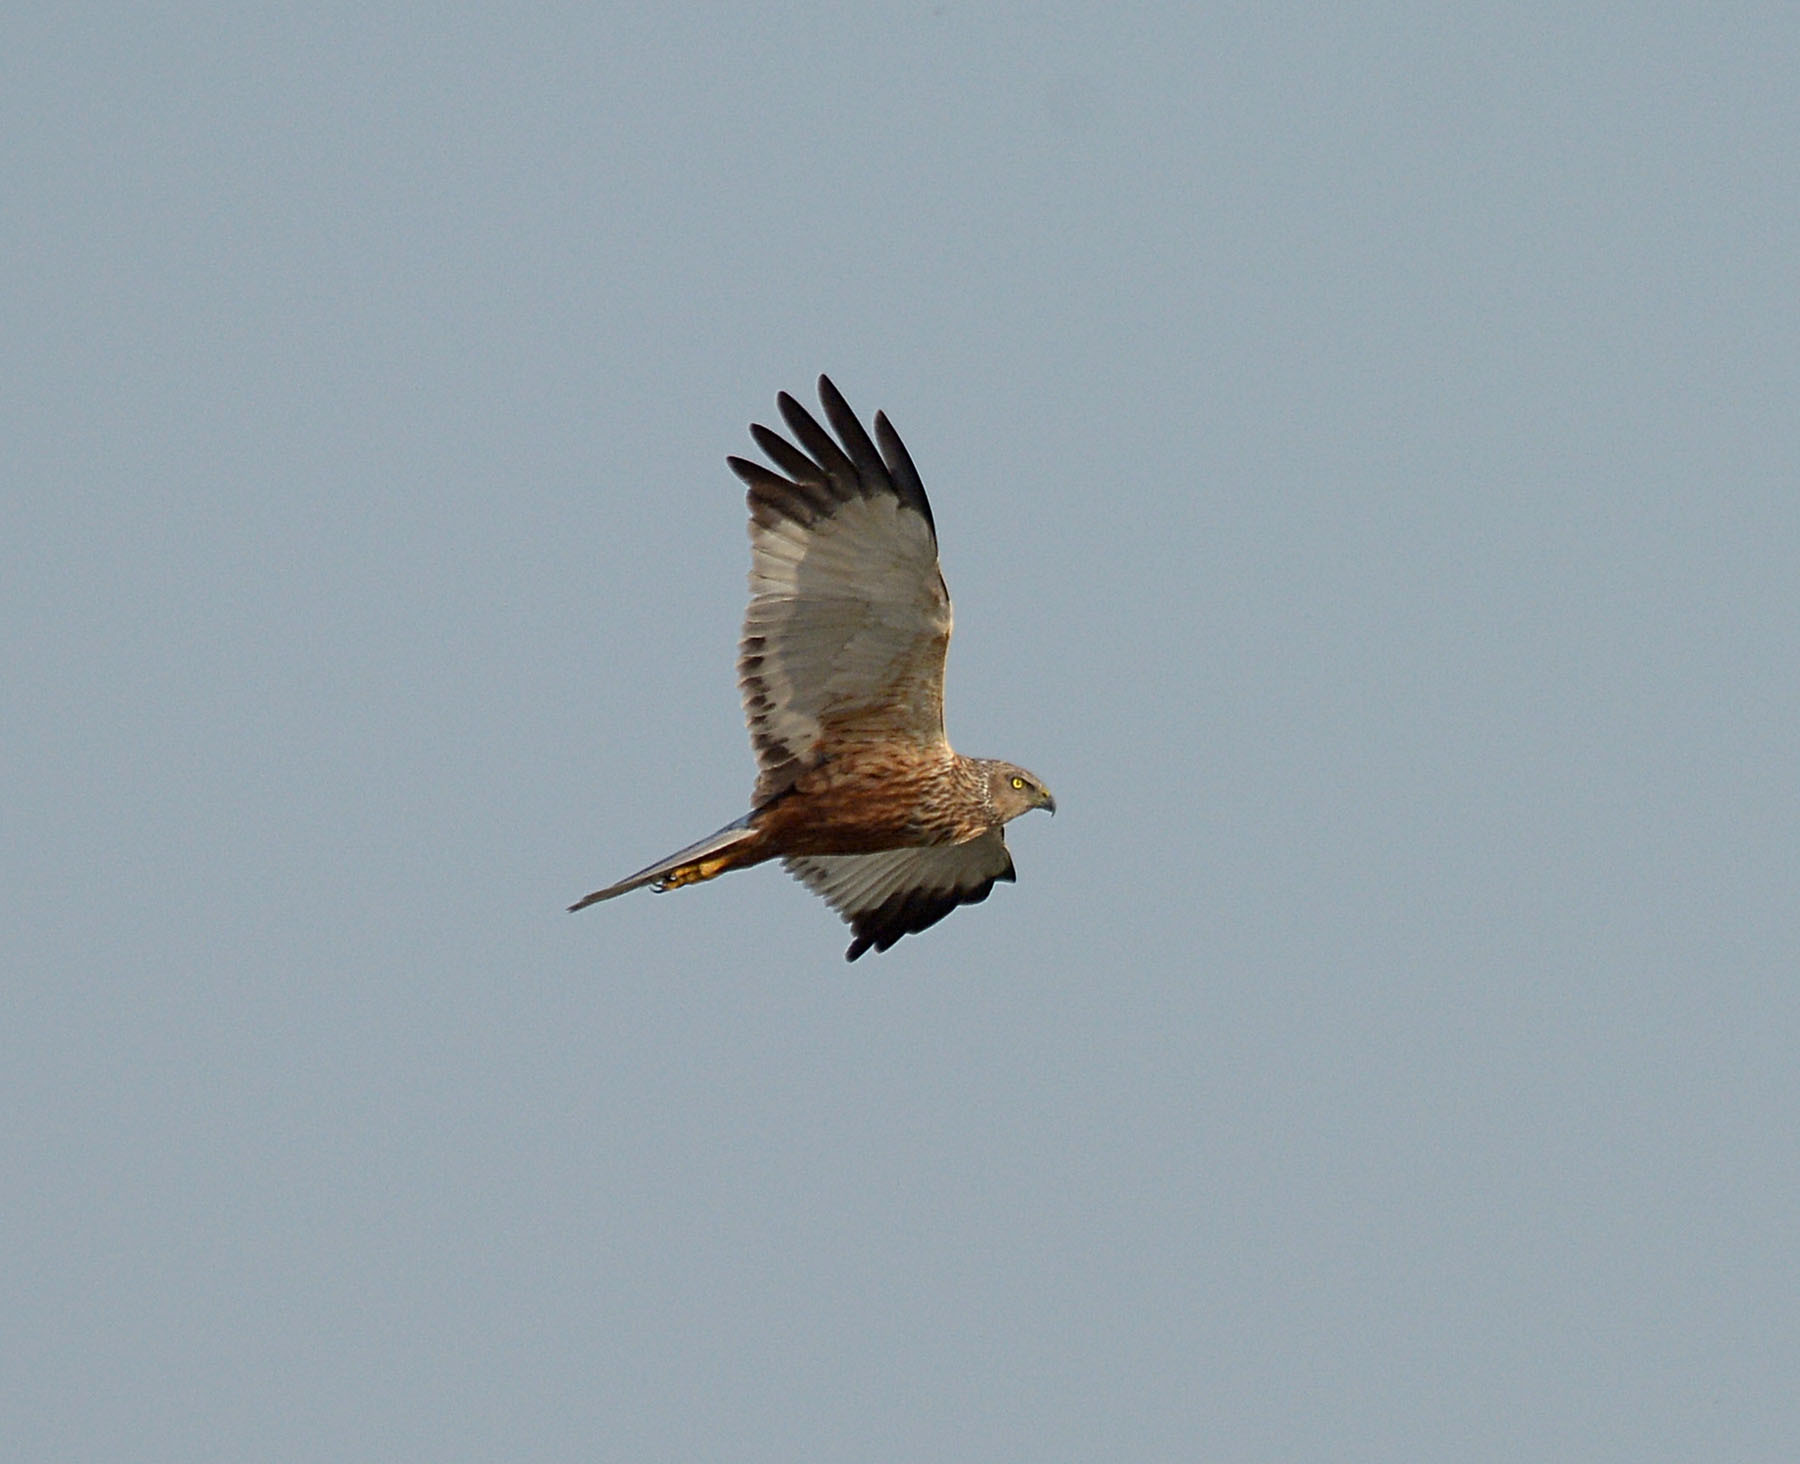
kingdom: Animalia
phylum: Chordata
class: Aves
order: Accipitriformes
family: Accipitridae
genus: Circus
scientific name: Circus aeruginosus
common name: Western marsh harrier
